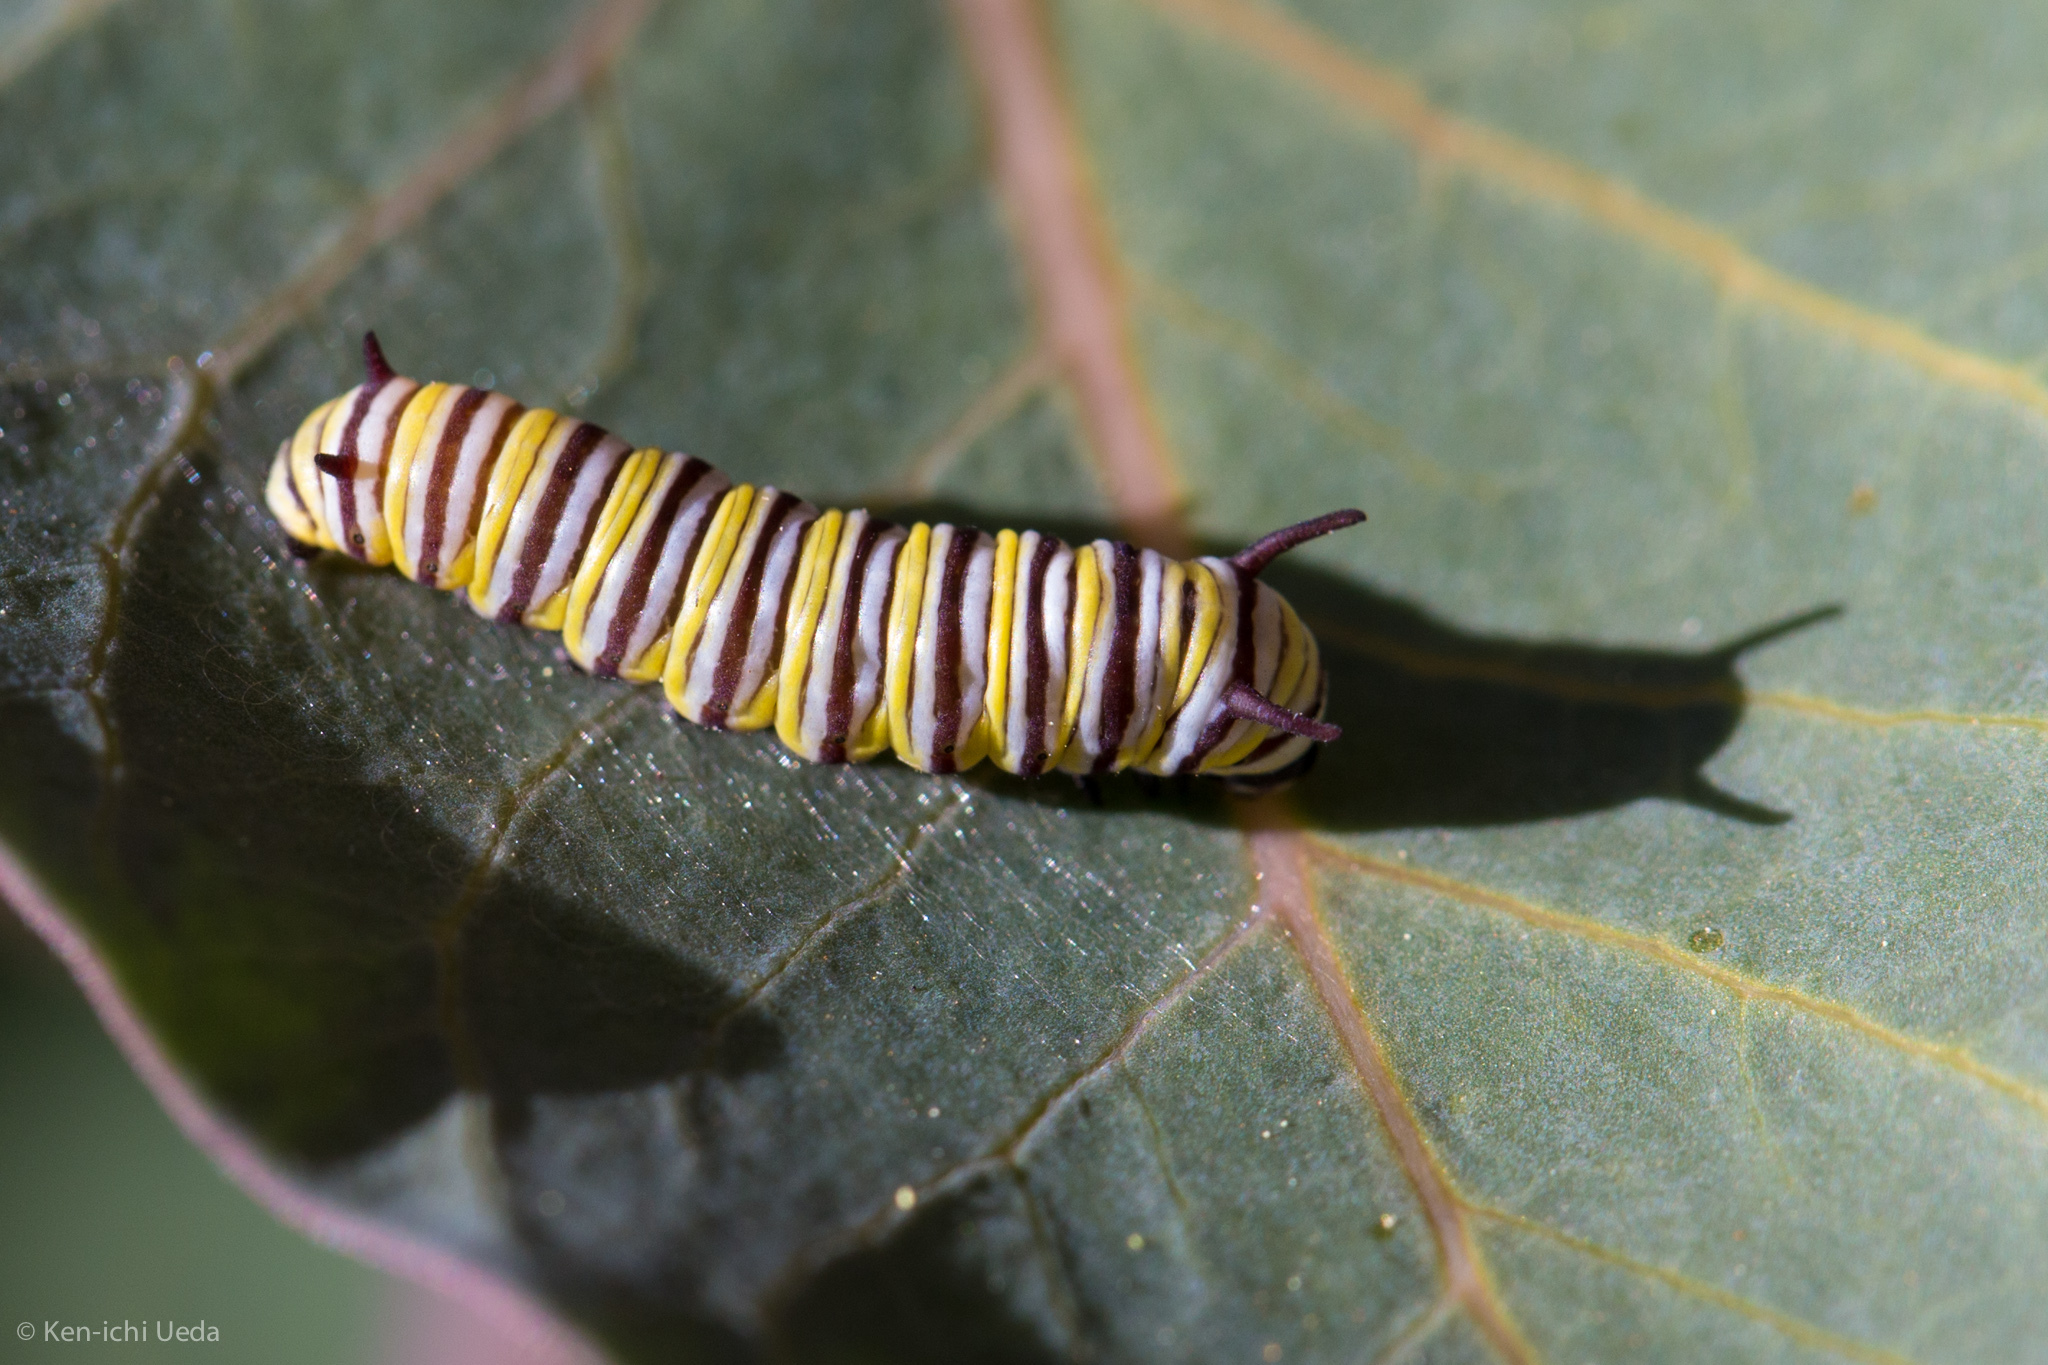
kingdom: Animalia
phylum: Arthropoda
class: Insecta
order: Lepidoptera
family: Nymphalidae
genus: Danaus
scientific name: Danaus plexippus
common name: Monarch
